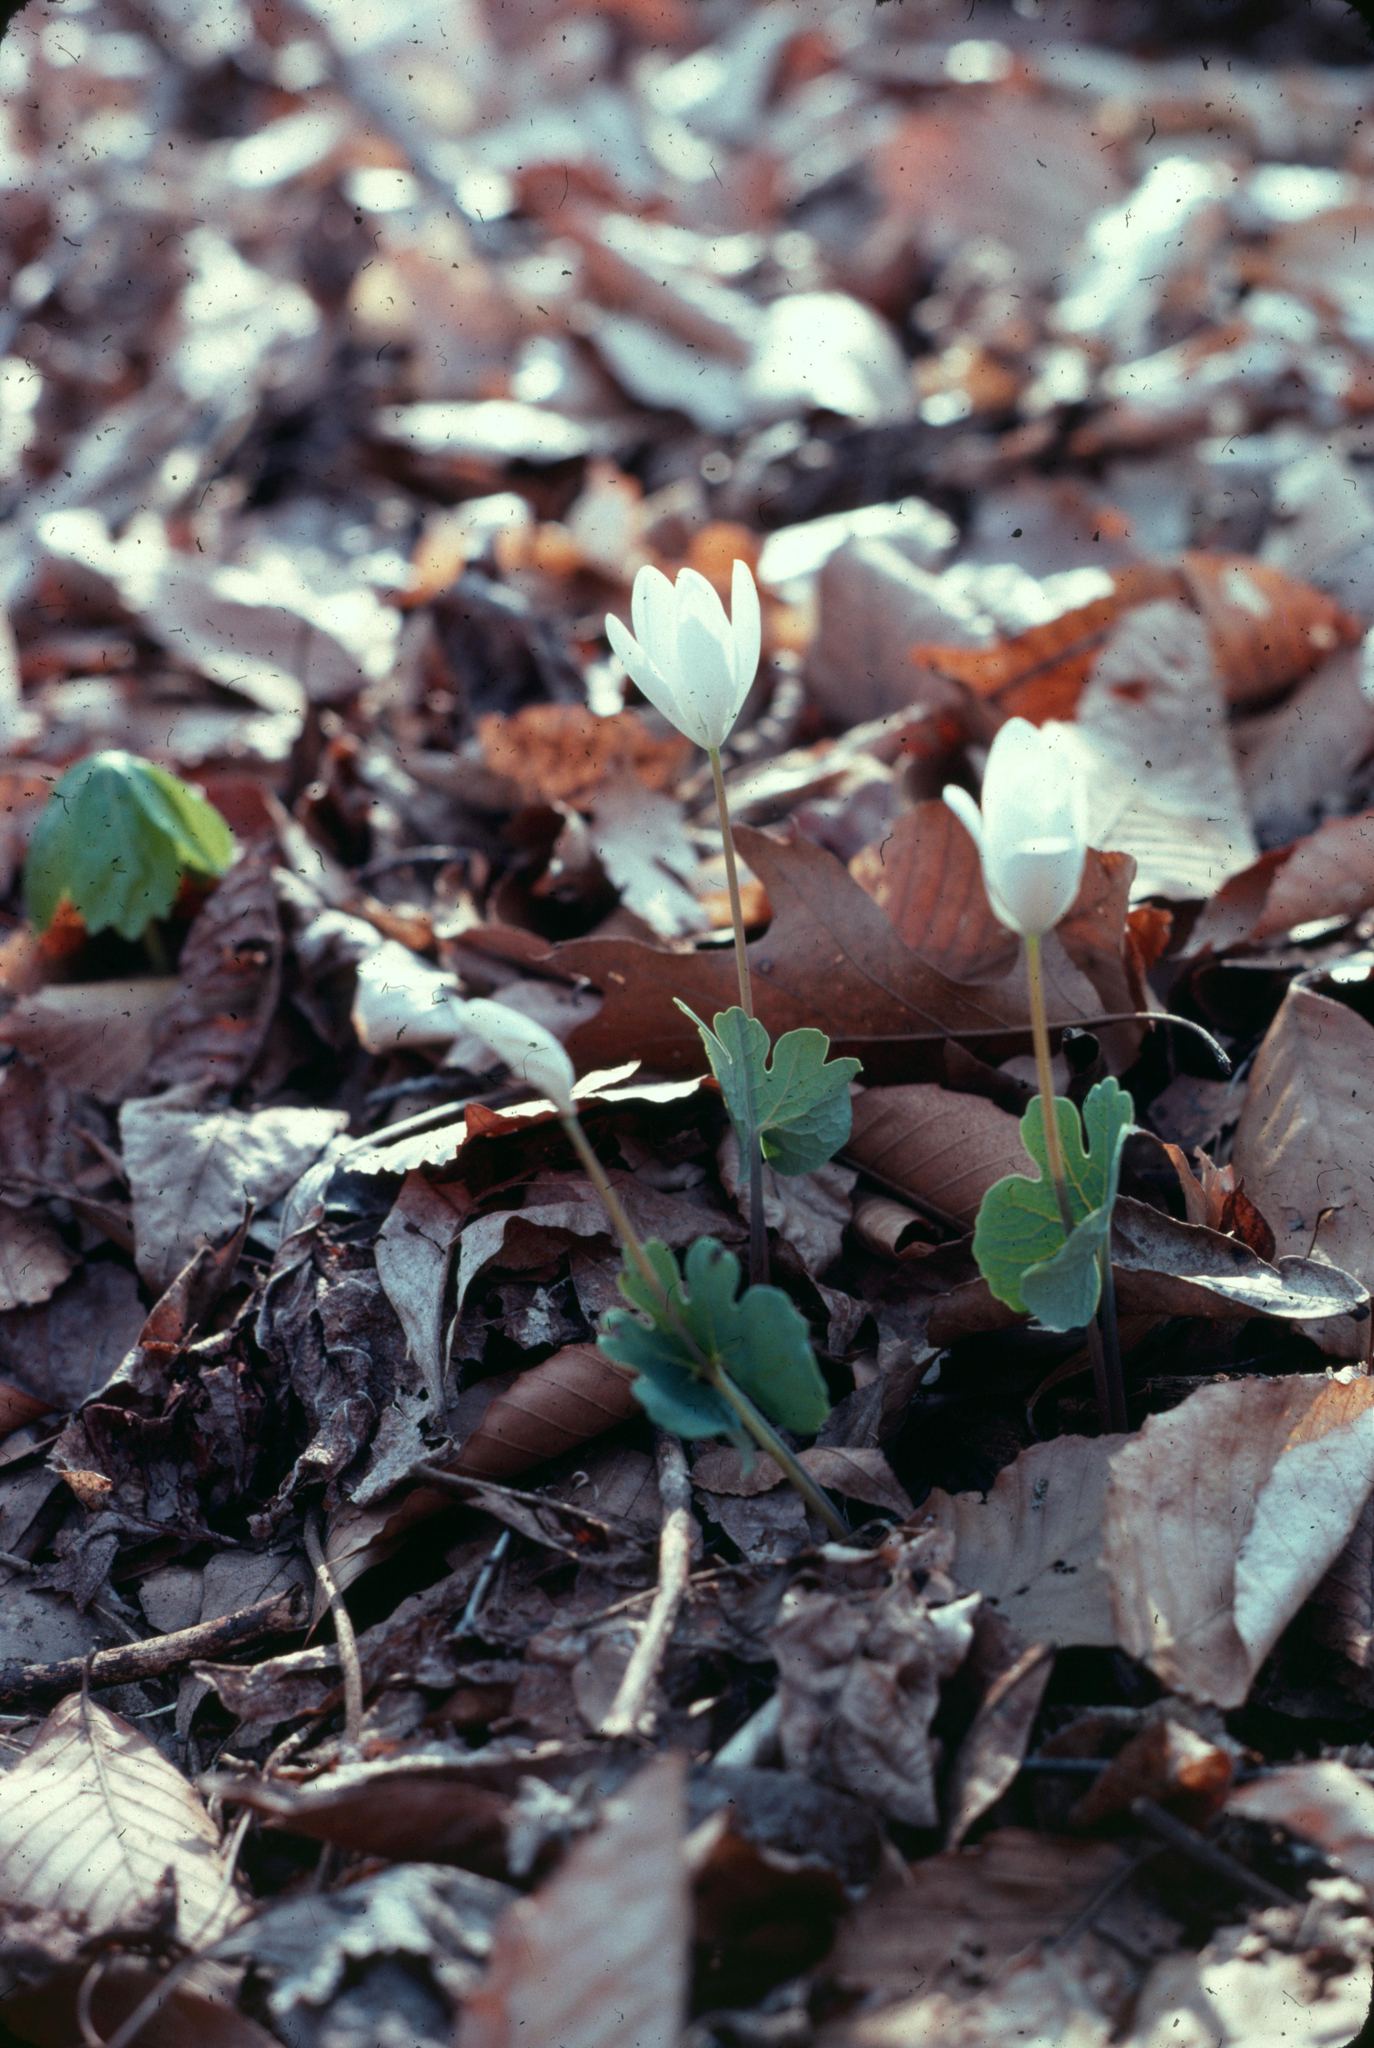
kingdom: Plantae
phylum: Tracheophyta
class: Magnoliopsida
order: Ranunculales
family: Papaveraceae
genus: Sanguinaria
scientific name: Sanguinaria canadensis
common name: Bloodroot
